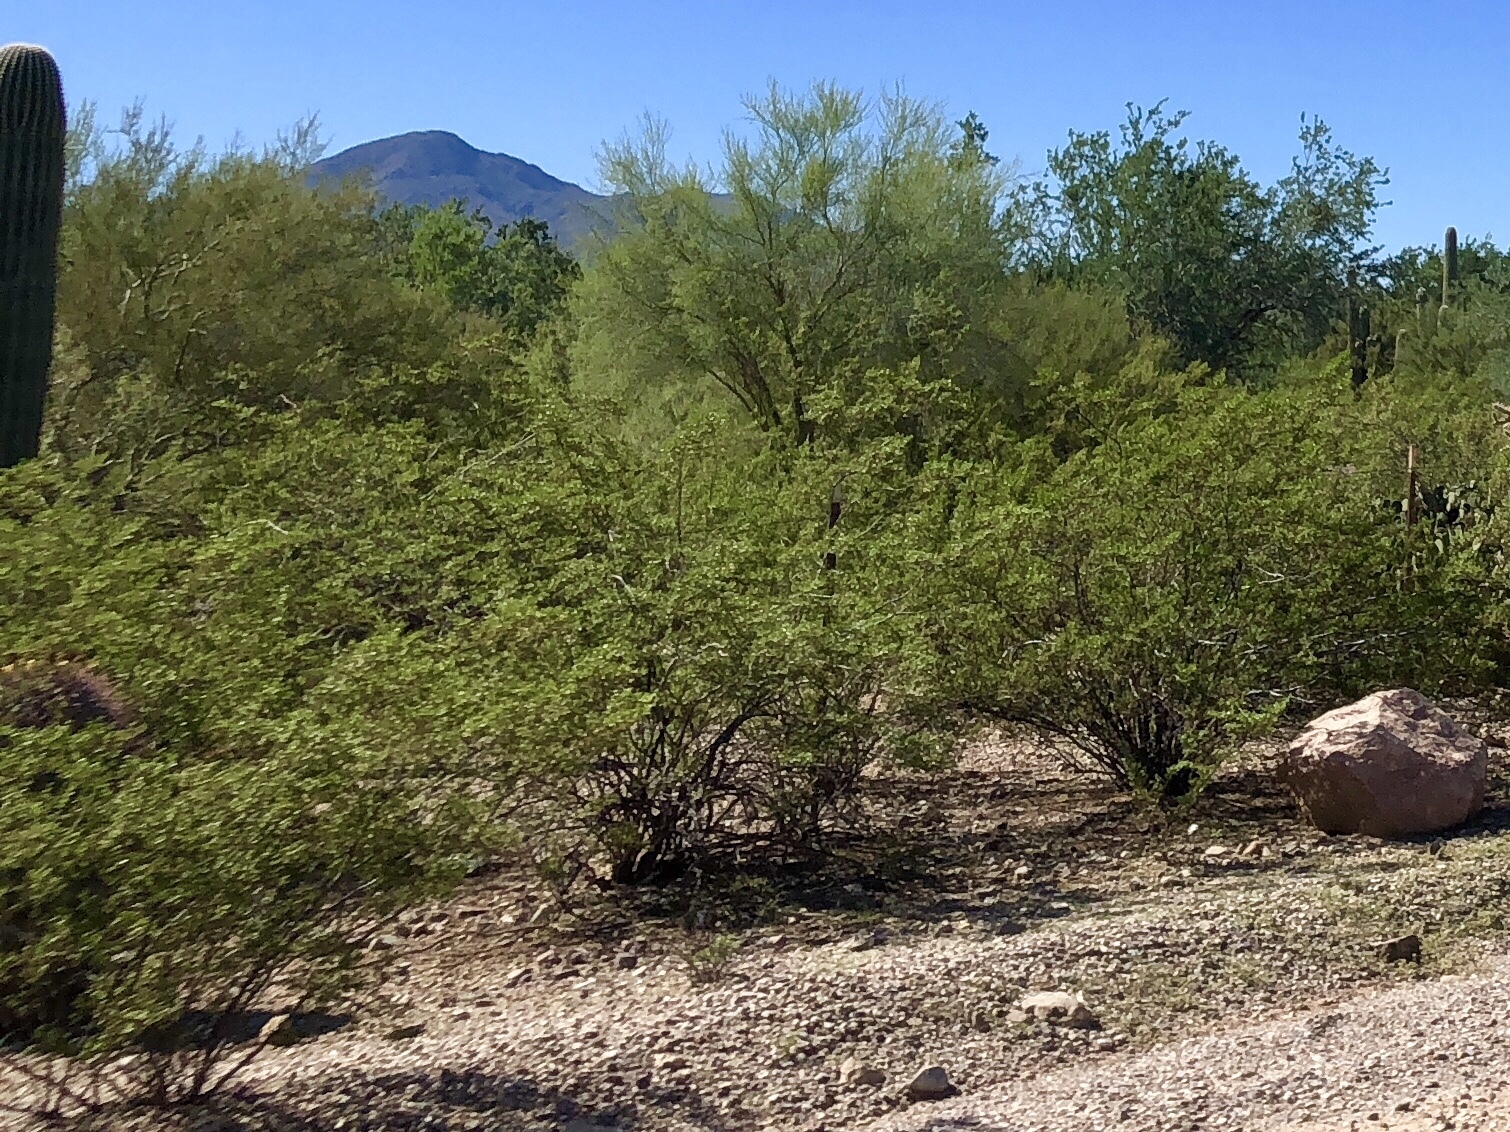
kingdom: Plantae
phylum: Tracheophyta
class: Magnoliopsida
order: Zygophyllales
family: Zygophyllaceae
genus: Larrea
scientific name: Larrea tridentata
